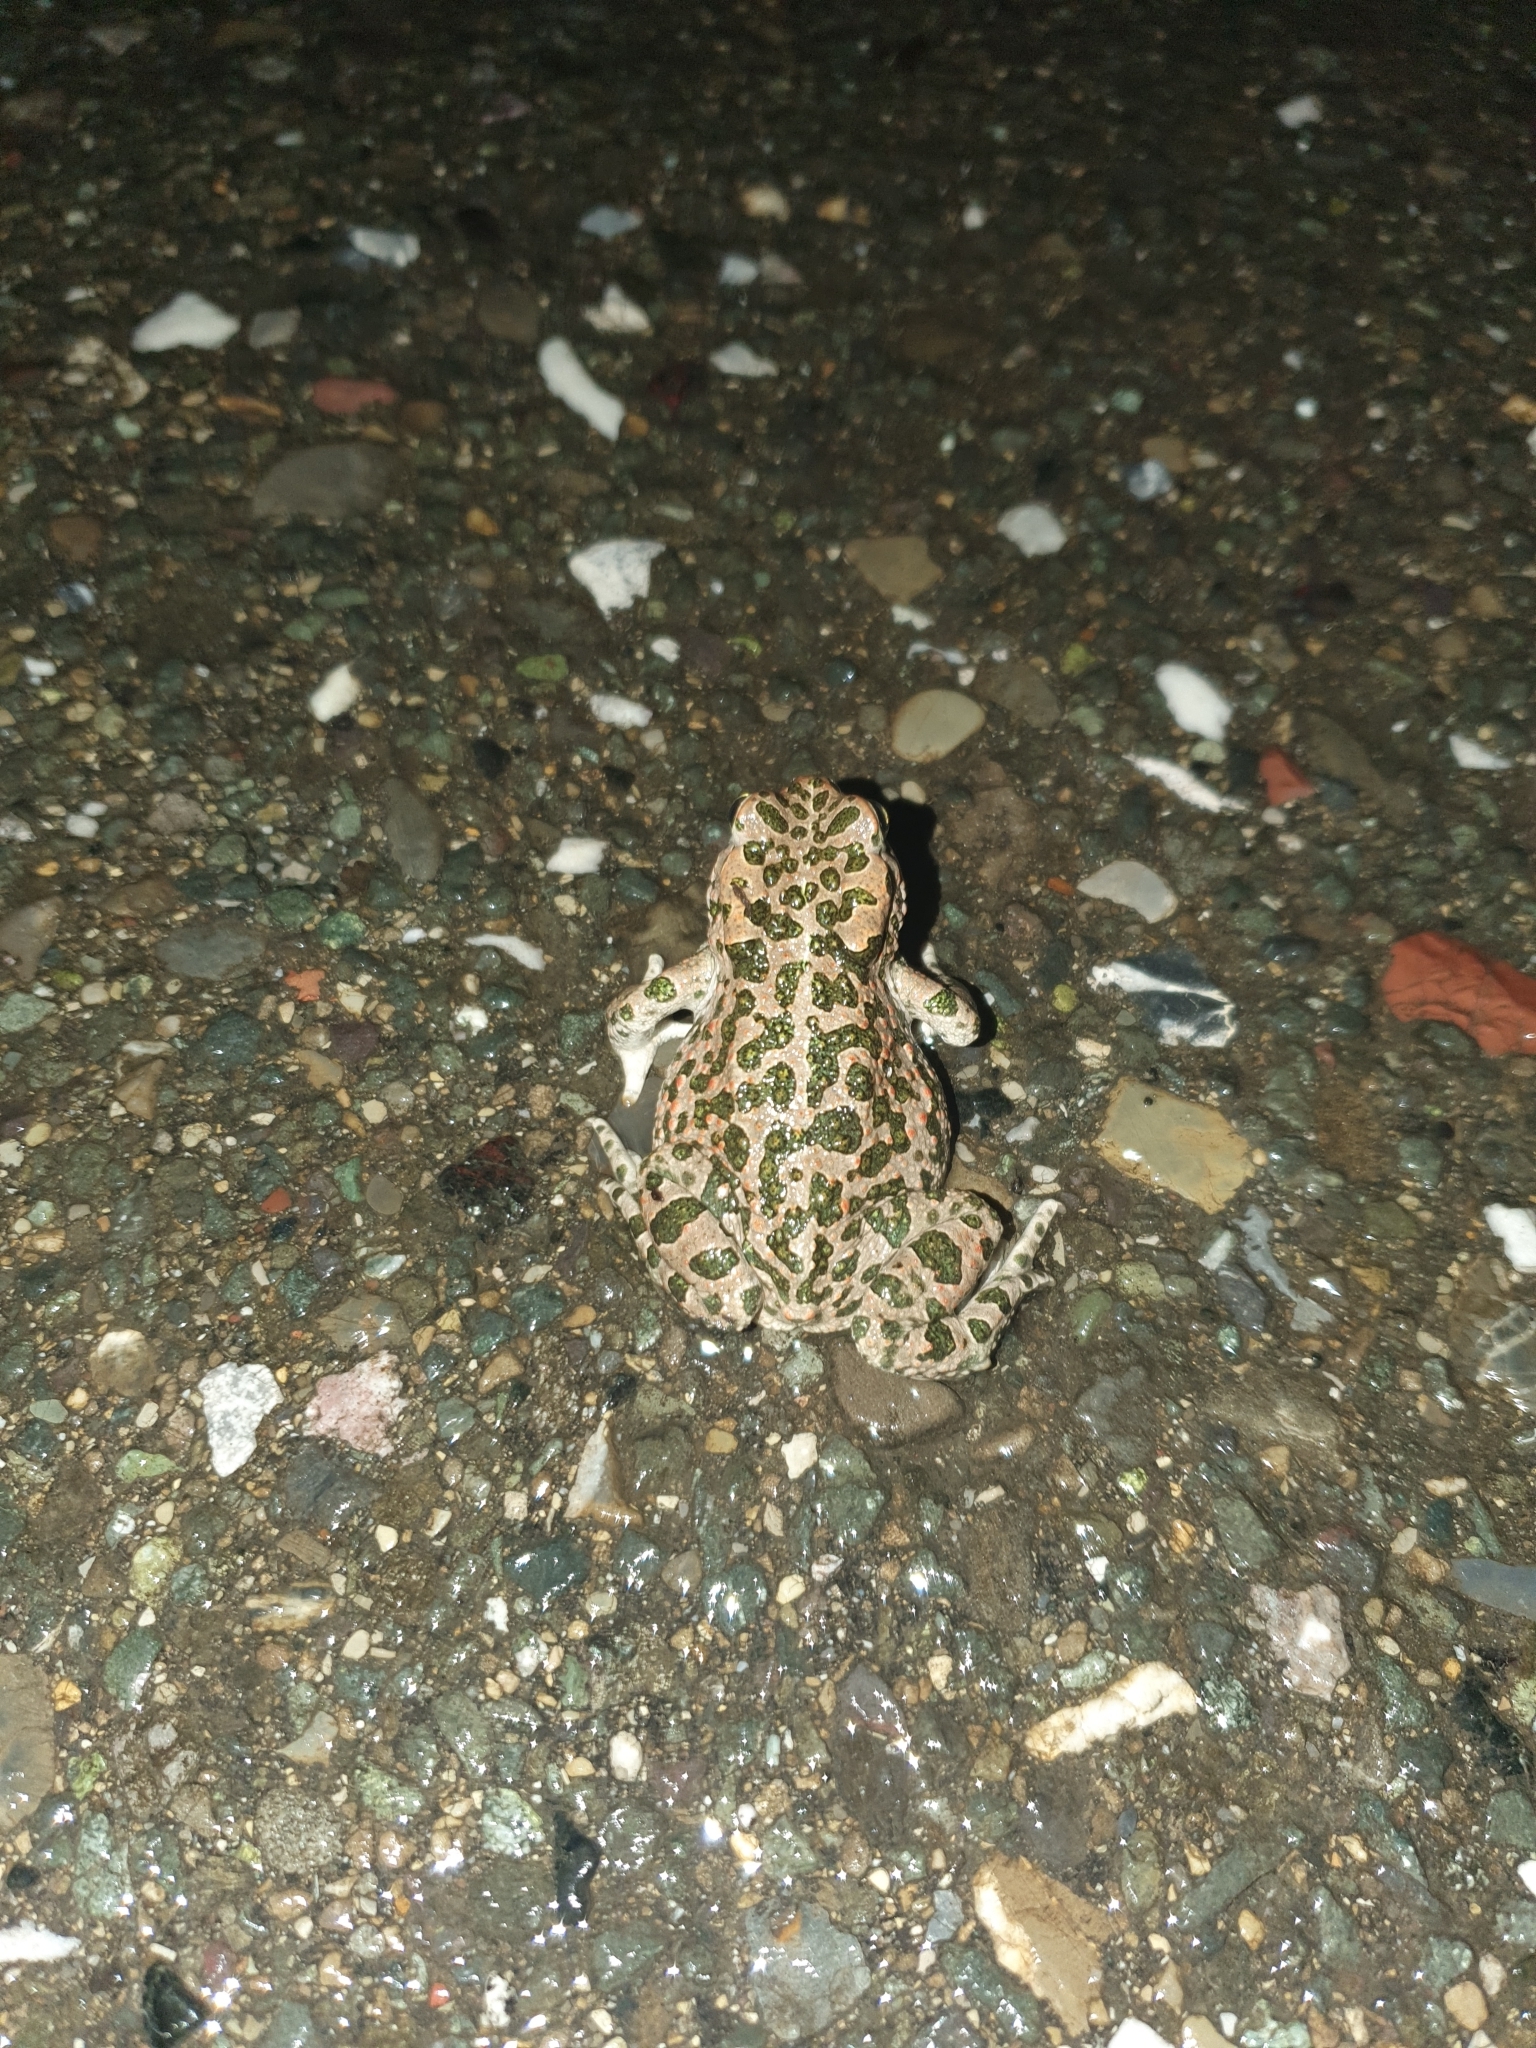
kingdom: Animalia
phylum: Chordata
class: Amphibia
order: Anura
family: Bufonidae
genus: Bufotes
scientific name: Bufotes viridis
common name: European green toad
